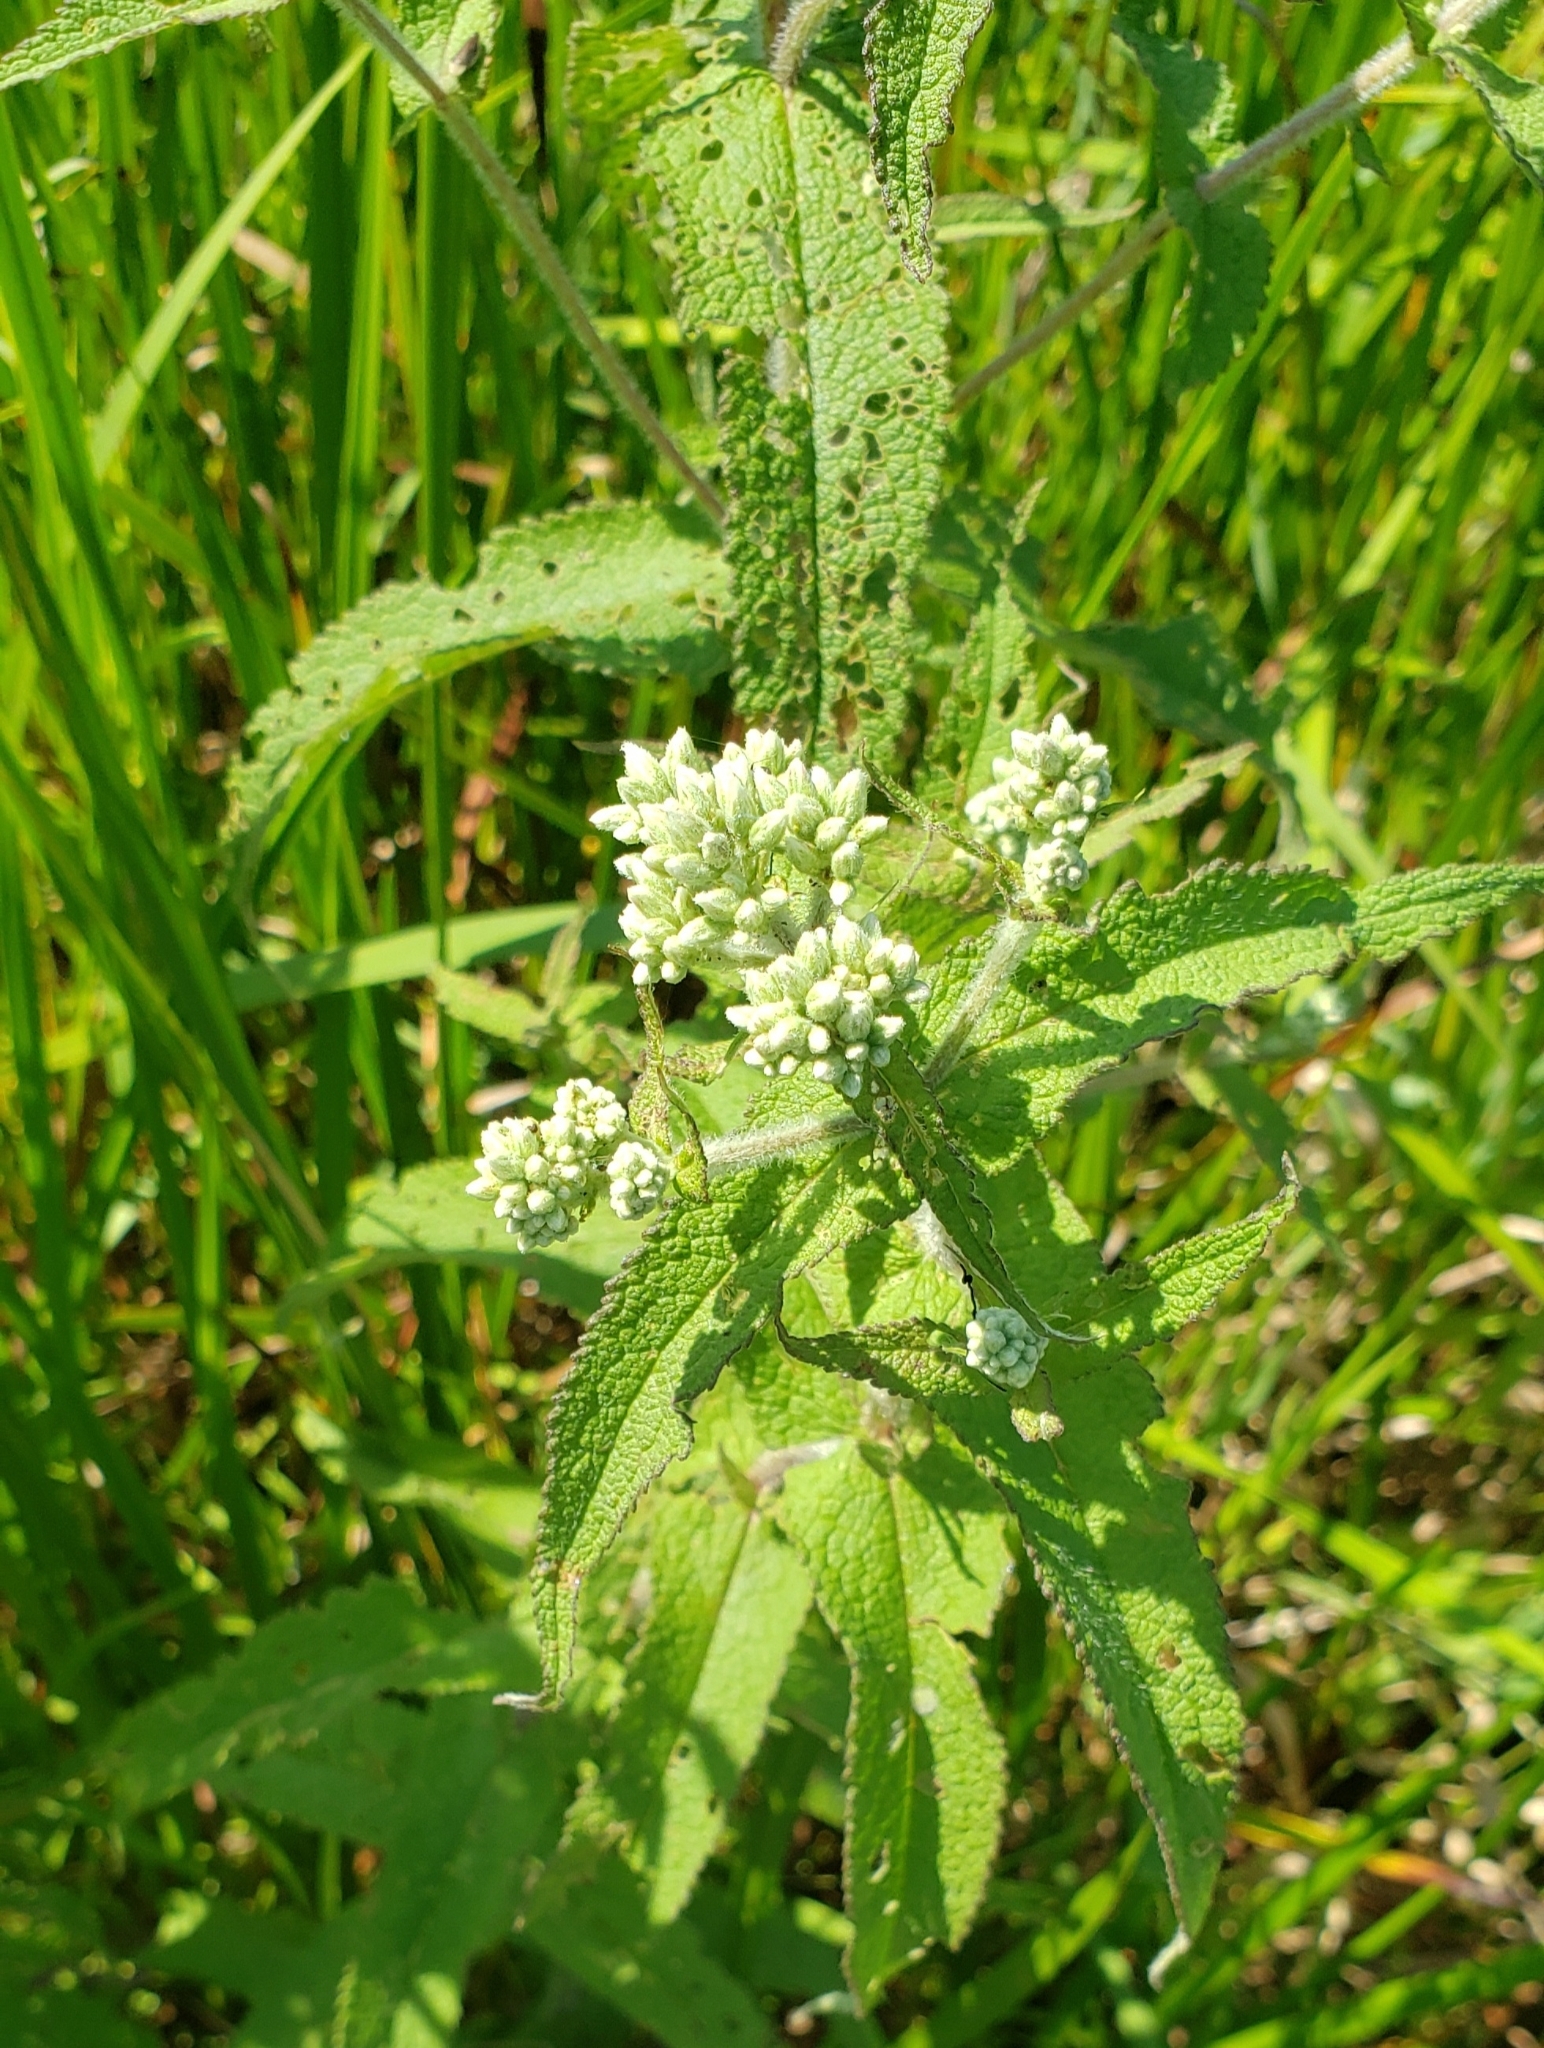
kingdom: Plantae
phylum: Tracheophyta
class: Magnoliopsida
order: Asterales
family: Asteraceae
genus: Eupatorium
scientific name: Eupatorium perfoliatum
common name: Boneset
